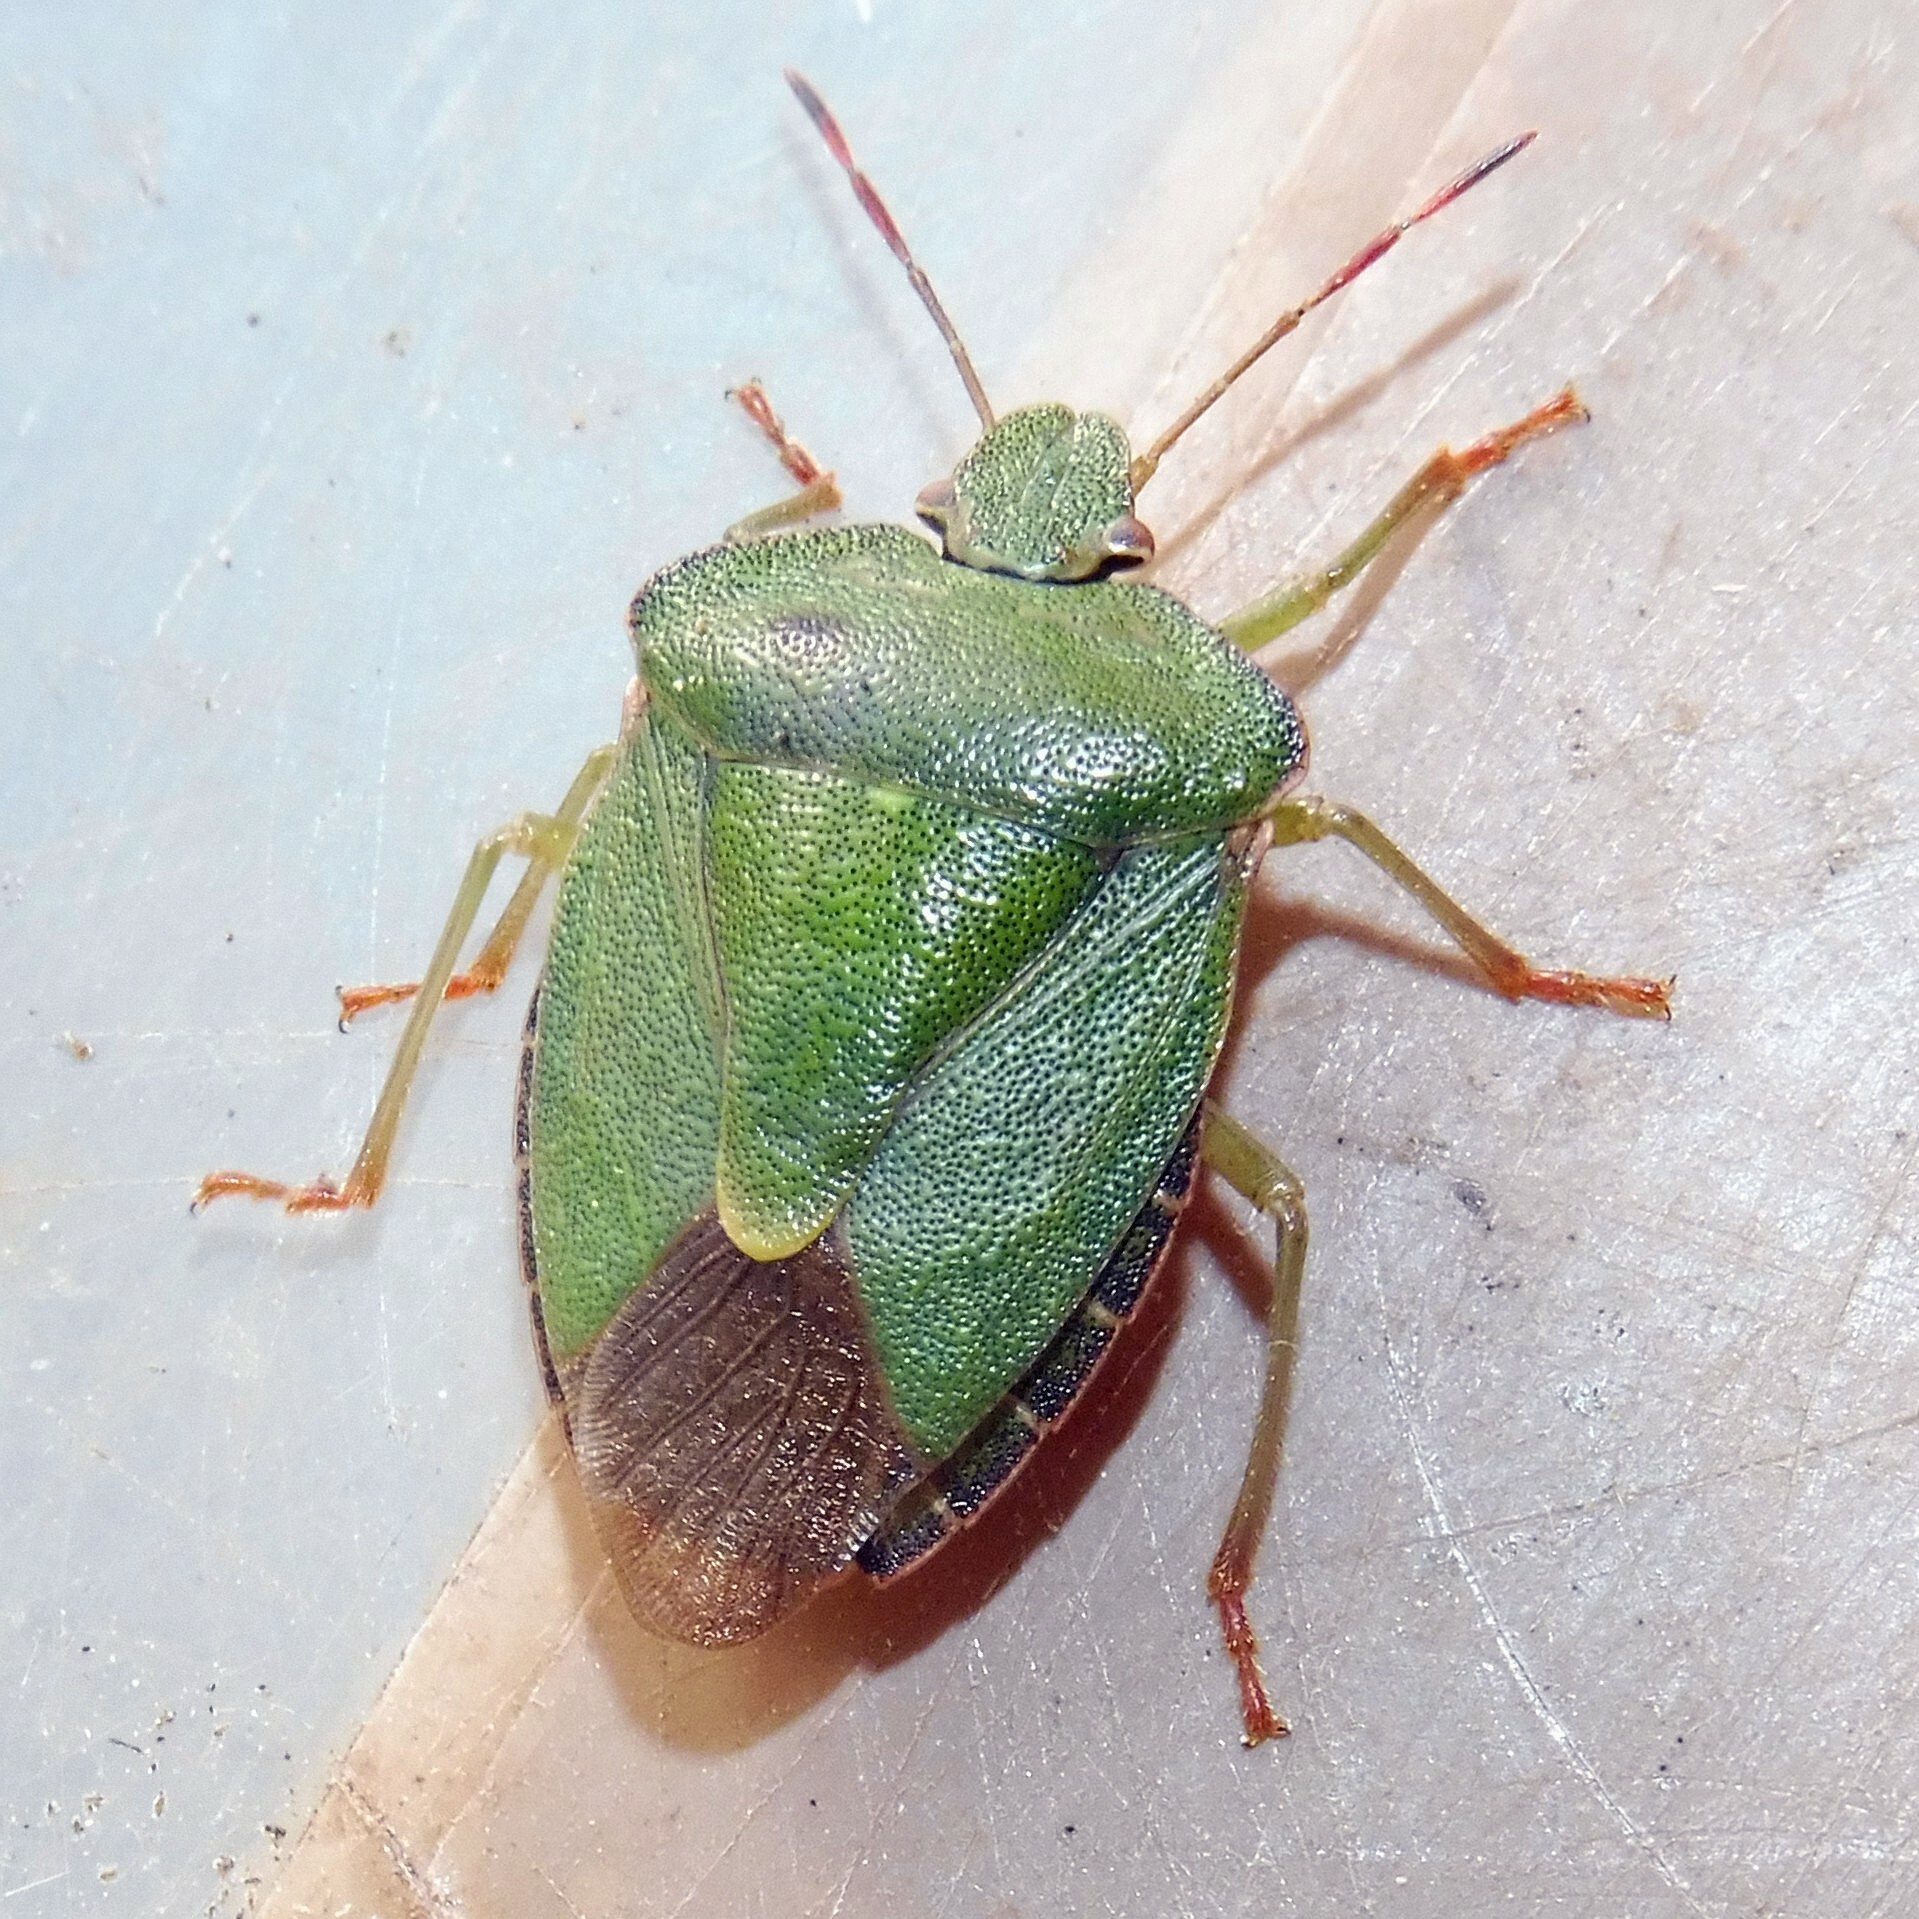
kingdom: Animalia
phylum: Arthropoda
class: Insecta
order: Hemiptera
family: Pentatomidae
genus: Palomena
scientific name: Palomena prasina
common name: Green shieldbug
